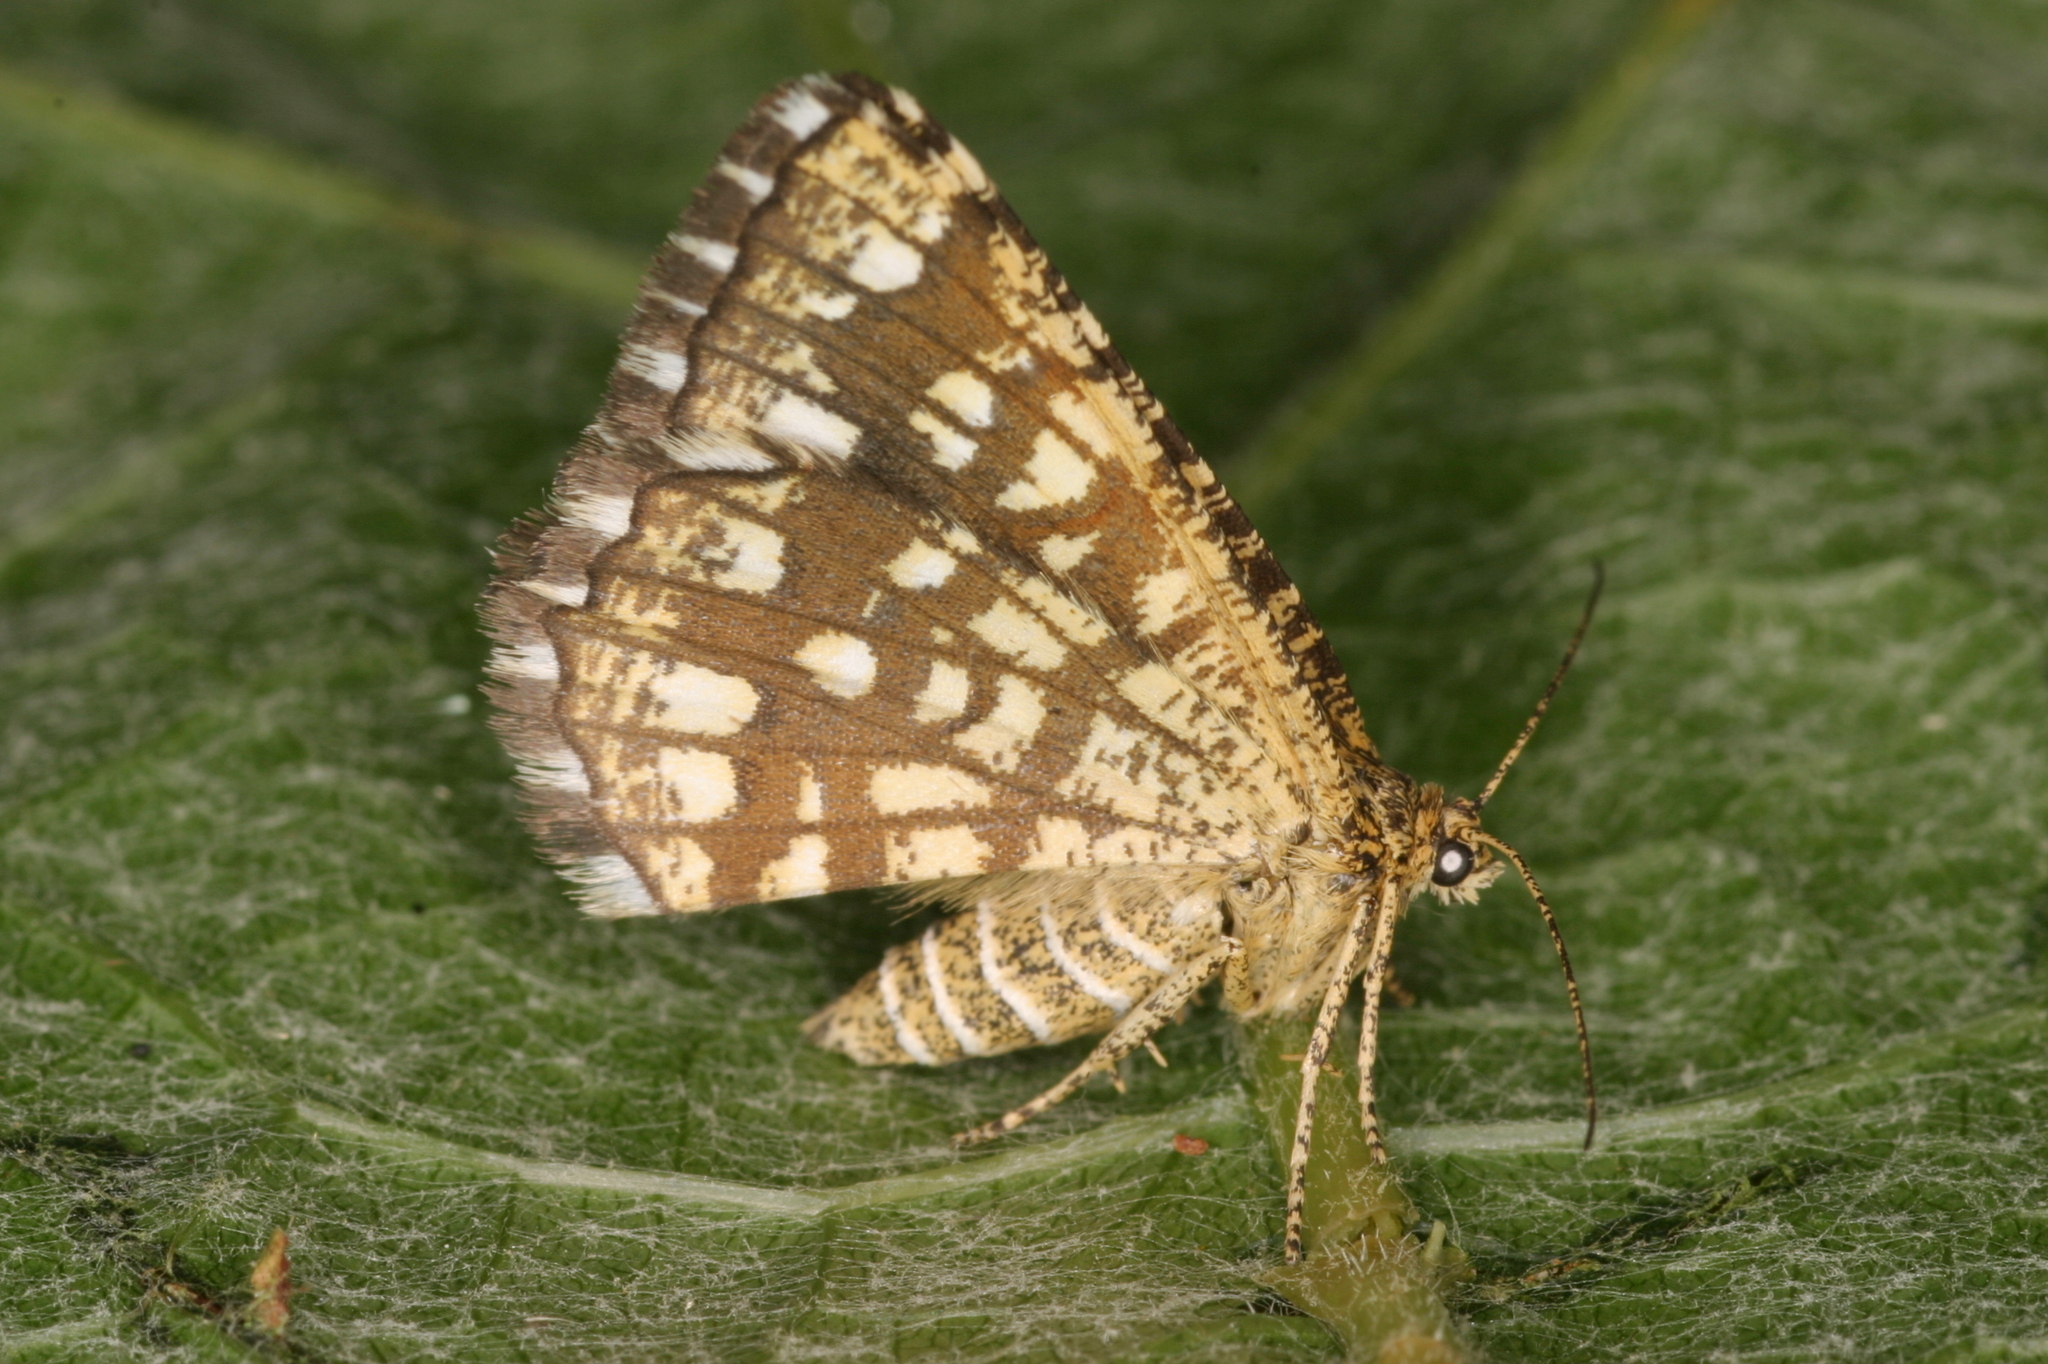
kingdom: Animalia
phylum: Arthropoda
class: Insecta
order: Lepidoptera
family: Geometridae
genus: Chiasmia
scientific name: Chiasmia clathrata
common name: Latticed heath
